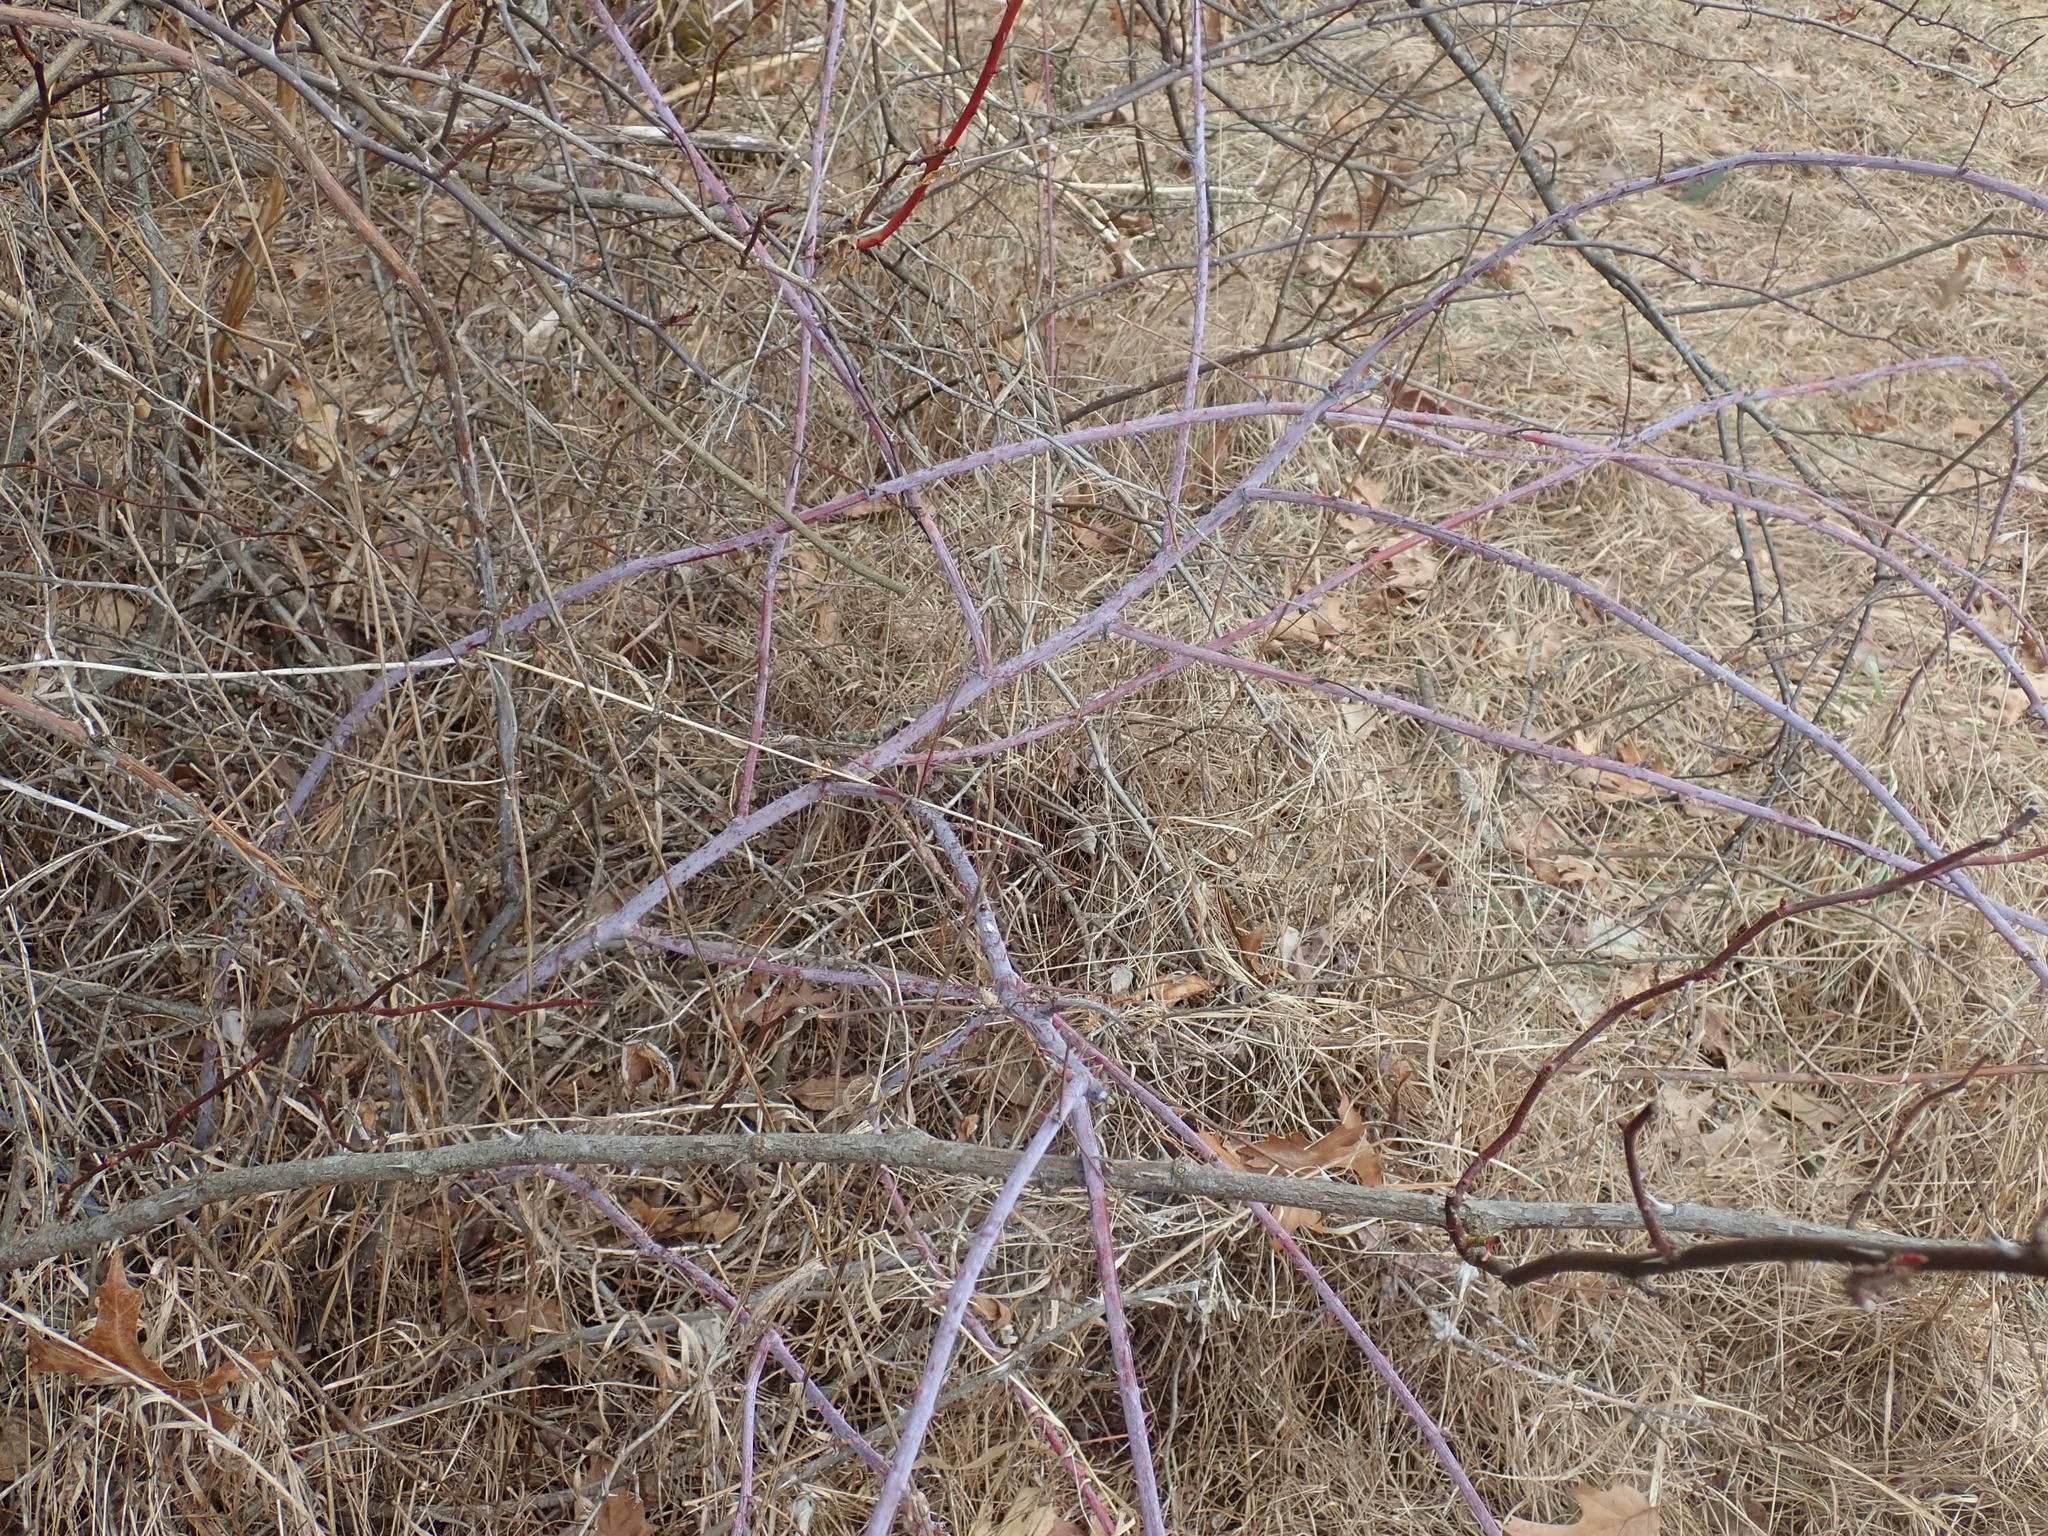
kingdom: Plantae
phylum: Tracheophyta
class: Magnoliopsida
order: Rosales
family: Rosaceae
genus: Rubus
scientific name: Rubus occidentalis
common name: Black raspberry
